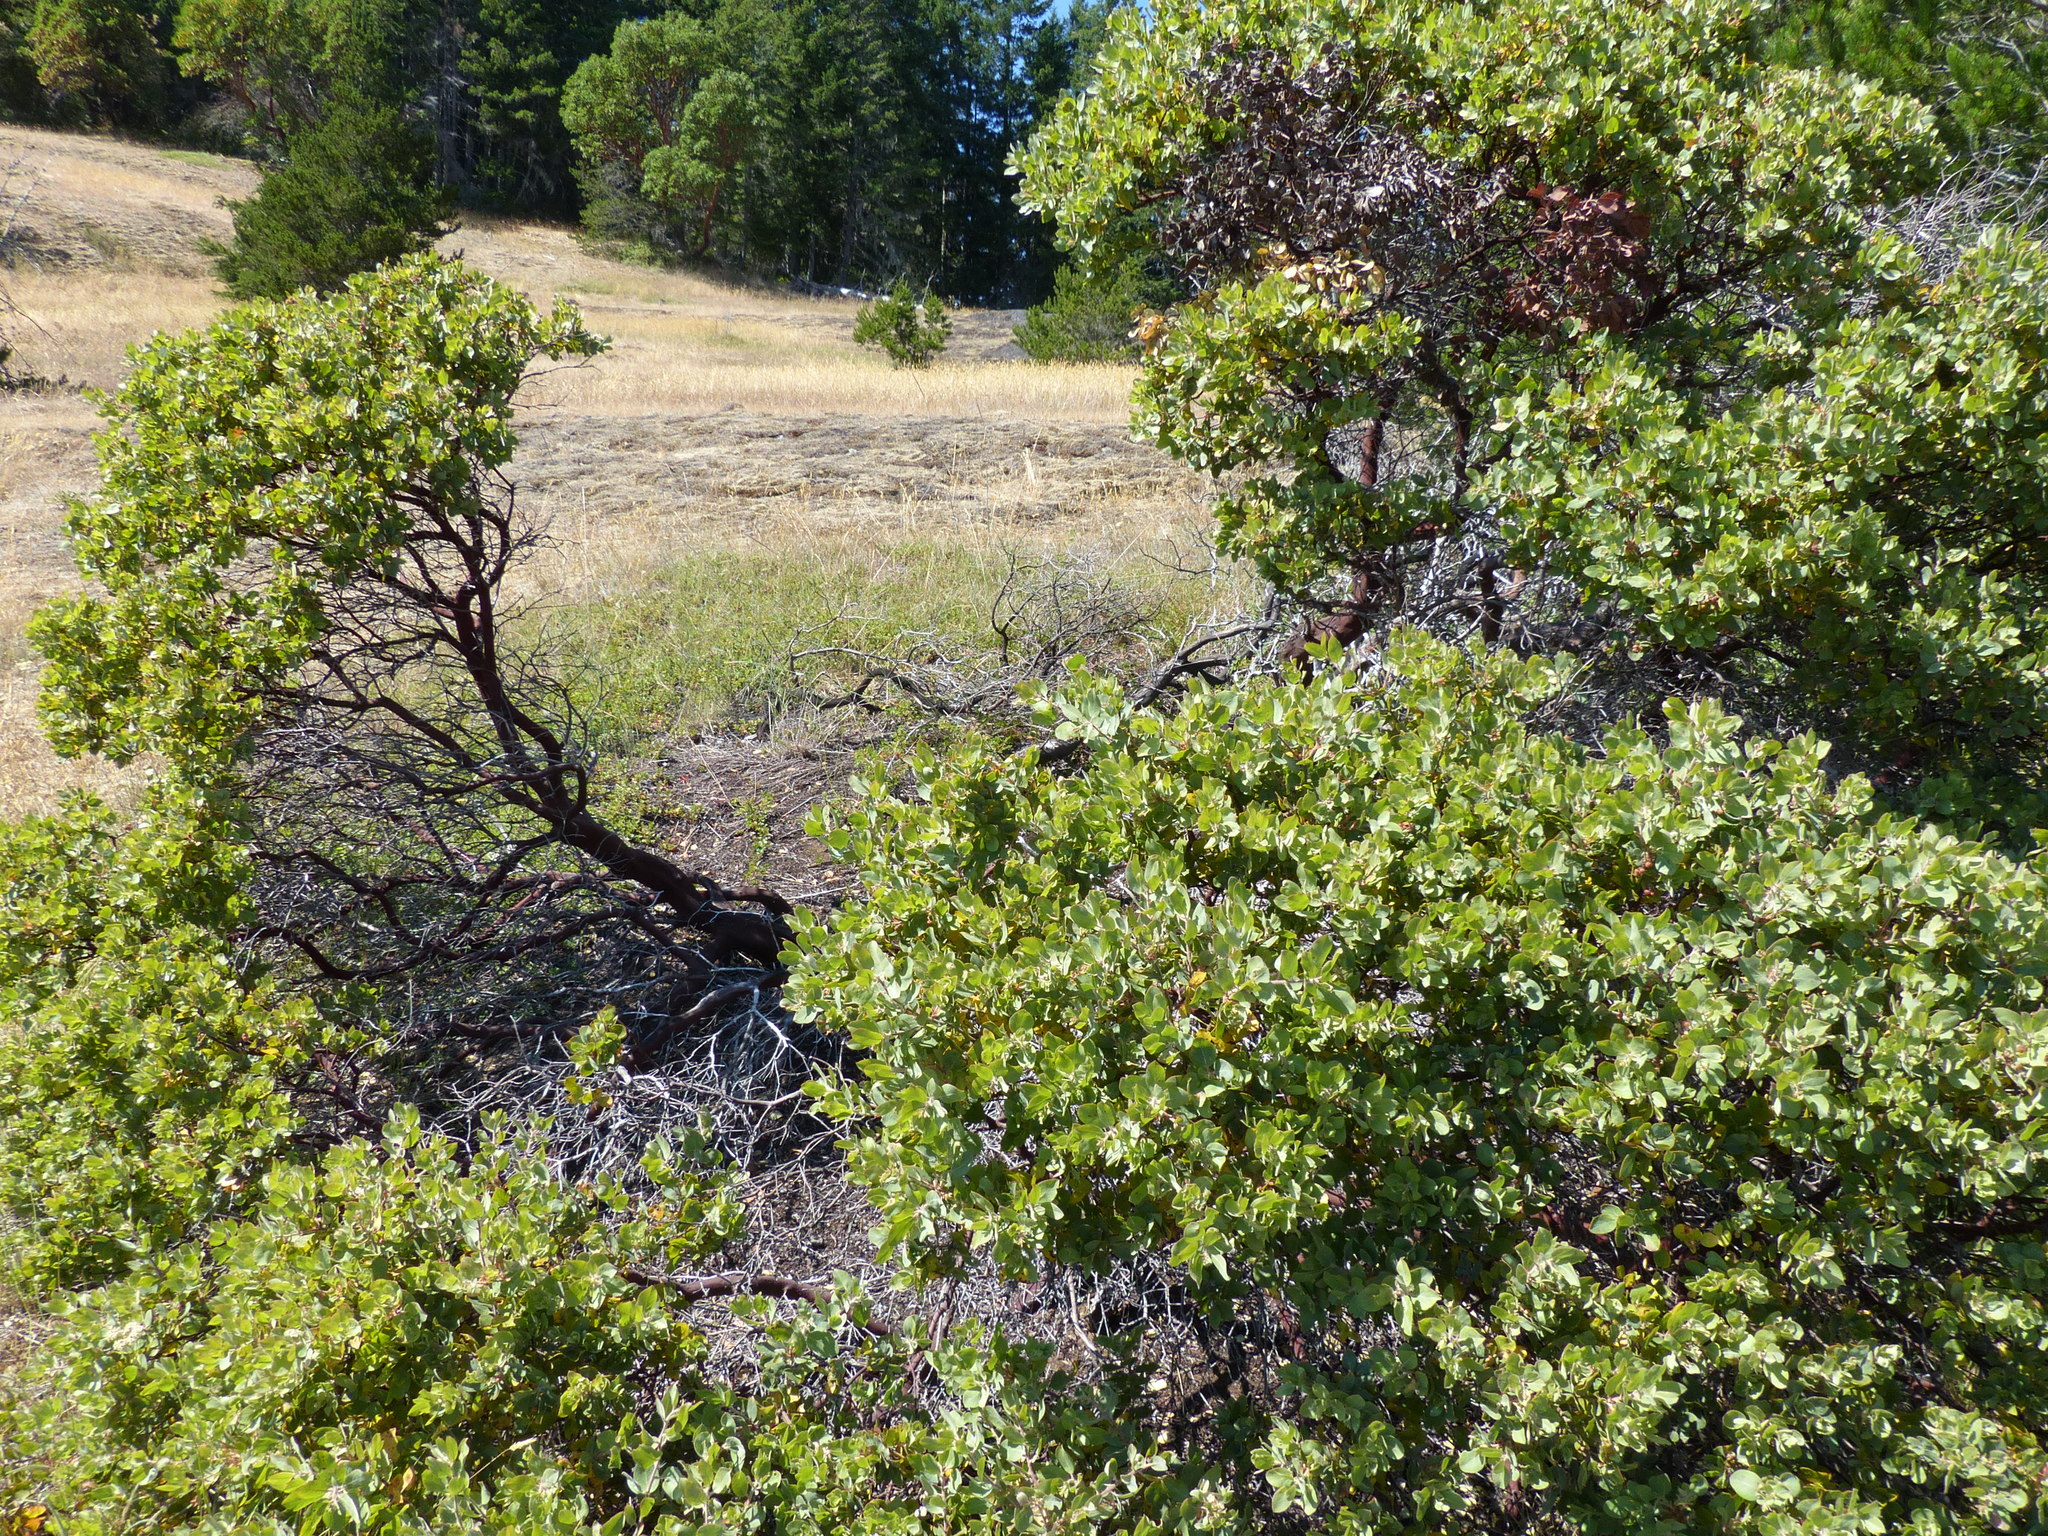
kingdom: Plantae
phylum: Tracheophyta
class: Magnoliopsida
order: Ericales
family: Ericaceae
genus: Arctostaphylos
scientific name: Arctostaphylos columbiana
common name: Bristly bearberry
